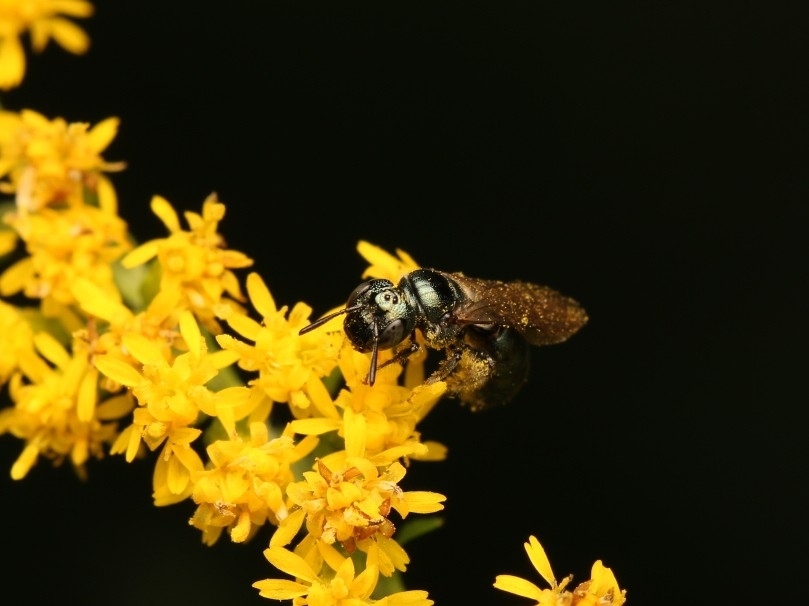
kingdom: Animalia
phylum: Arthropoda
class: Insecta
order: Hymenoptera
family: Apidae
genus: Ceratina
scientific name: Ceratina calcarata
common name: Spurred carpenter bee
